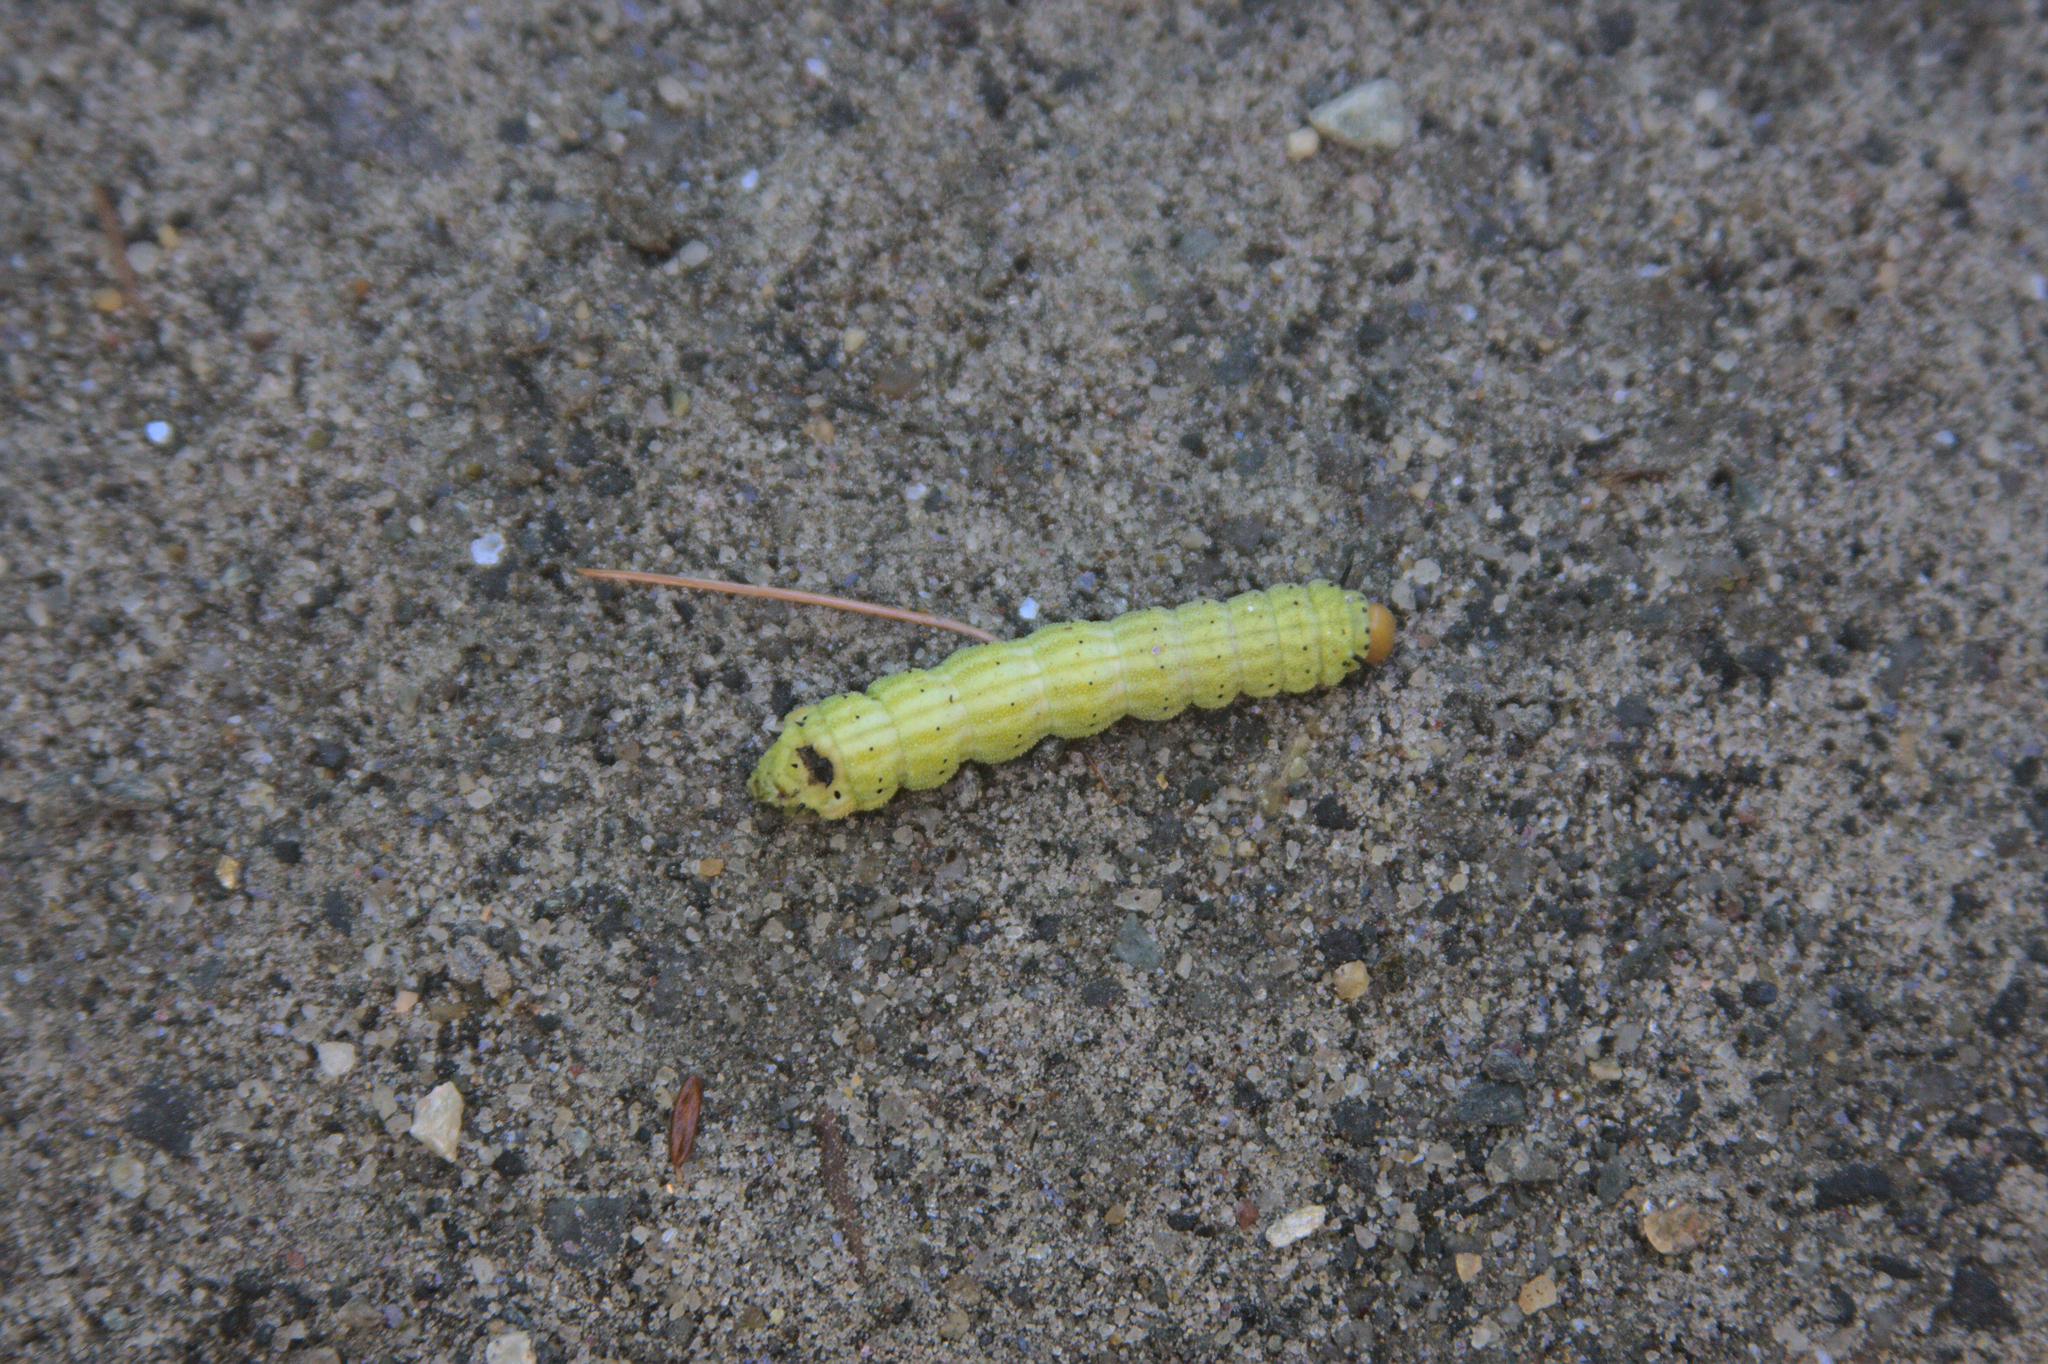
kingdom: Animalia
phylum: Arthropoda
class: Insecta
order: Lepidoptera
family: Saturniidae
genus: Dryocampa
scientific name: Dryocampa rubicunda
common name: Rosy maple moth
